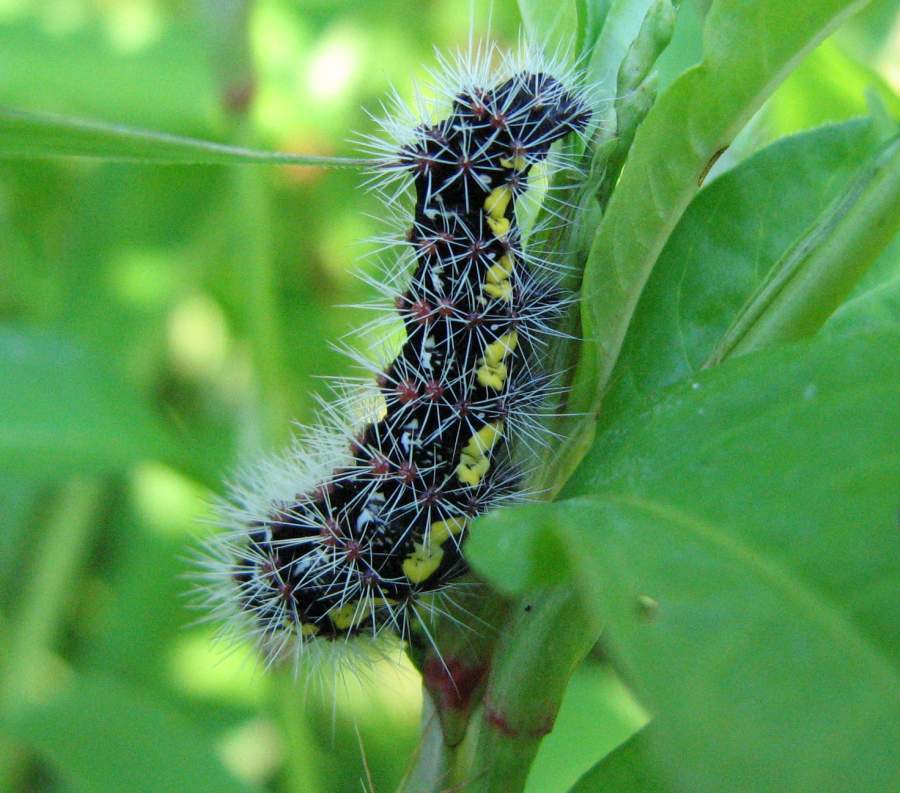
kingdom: Animalia
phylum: Arthropoda
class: Insecta
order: Lepidoptera
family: Noctuidae
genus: Acronicta
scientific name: Acronicta oblinita
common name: Smeared dagger
